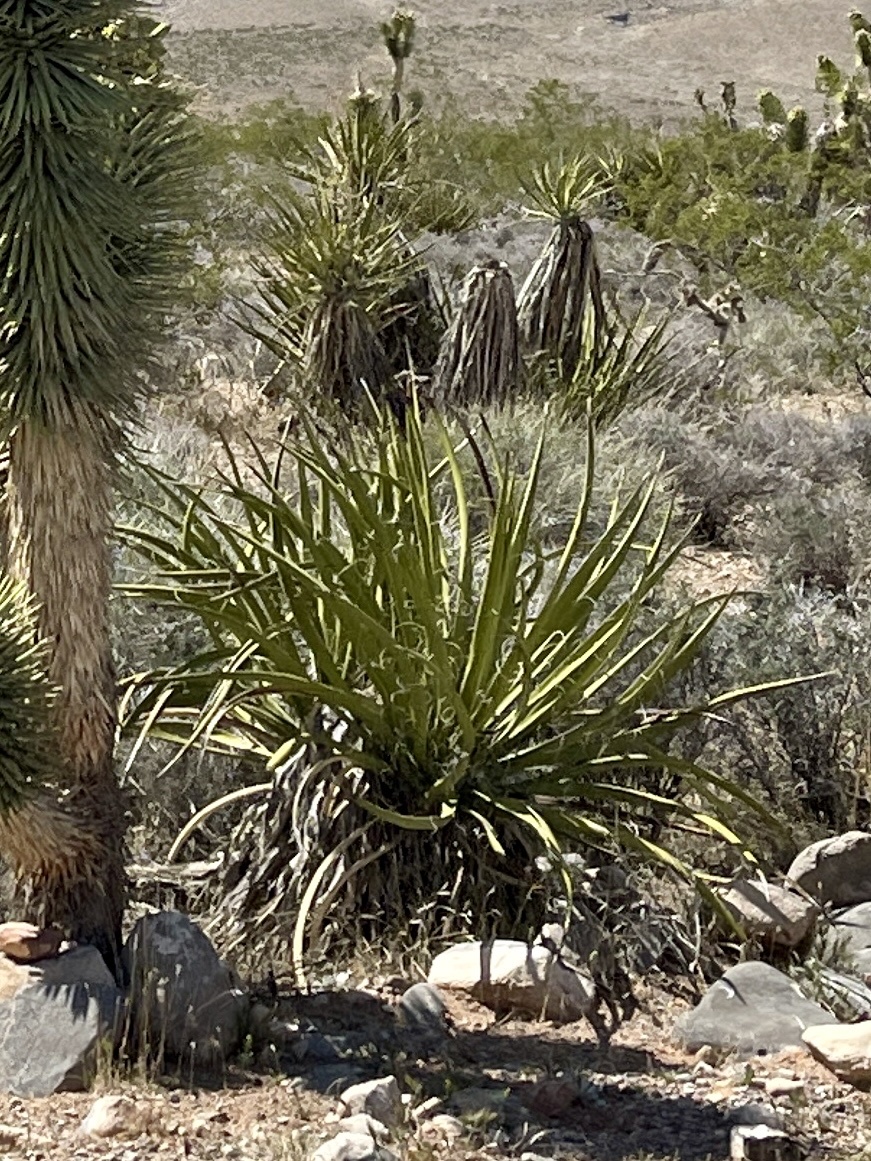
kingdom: Plantae
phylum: Tracheophyta
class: Liliopsida
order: Asparagales
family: Asparagaceae
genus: Yucca
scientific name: Yucca schidigera
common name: Mojave yucca
